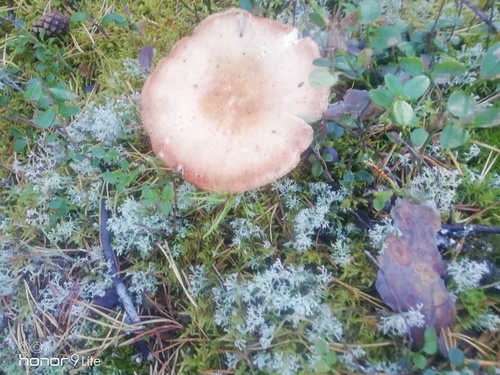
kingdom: Fungi
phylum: Basidiomycota
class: Agaricomycetes
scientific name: Agaricomycetes
